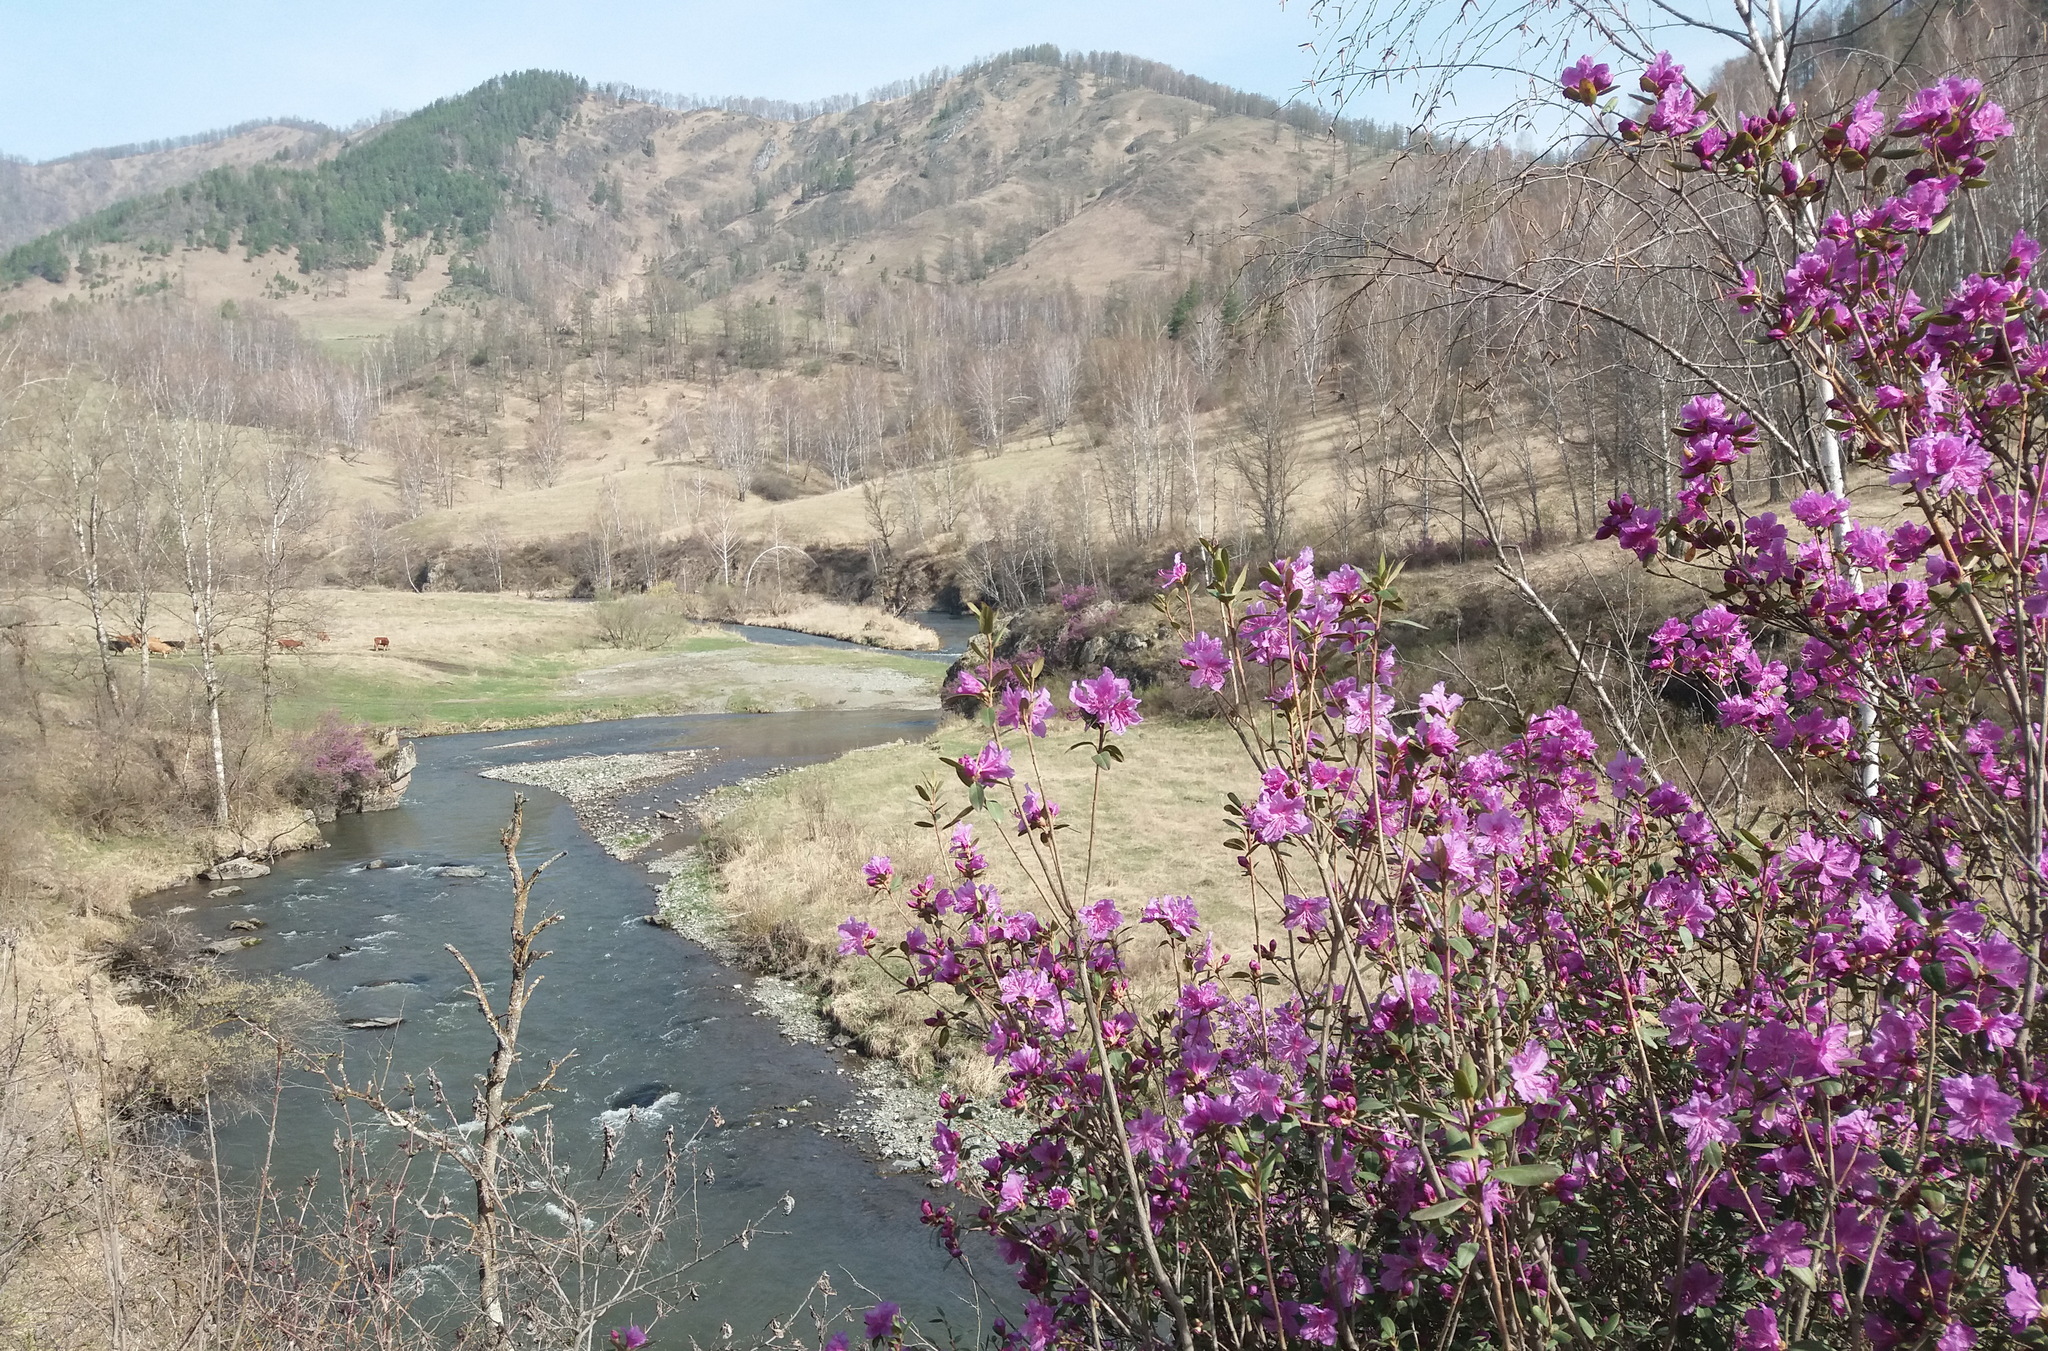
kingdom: Plantae
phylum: Tracheophyta
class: Magnoliopsida
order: Ericales
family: Ericaceae
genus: Rhododendron
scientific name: Rhododendron dauricum
